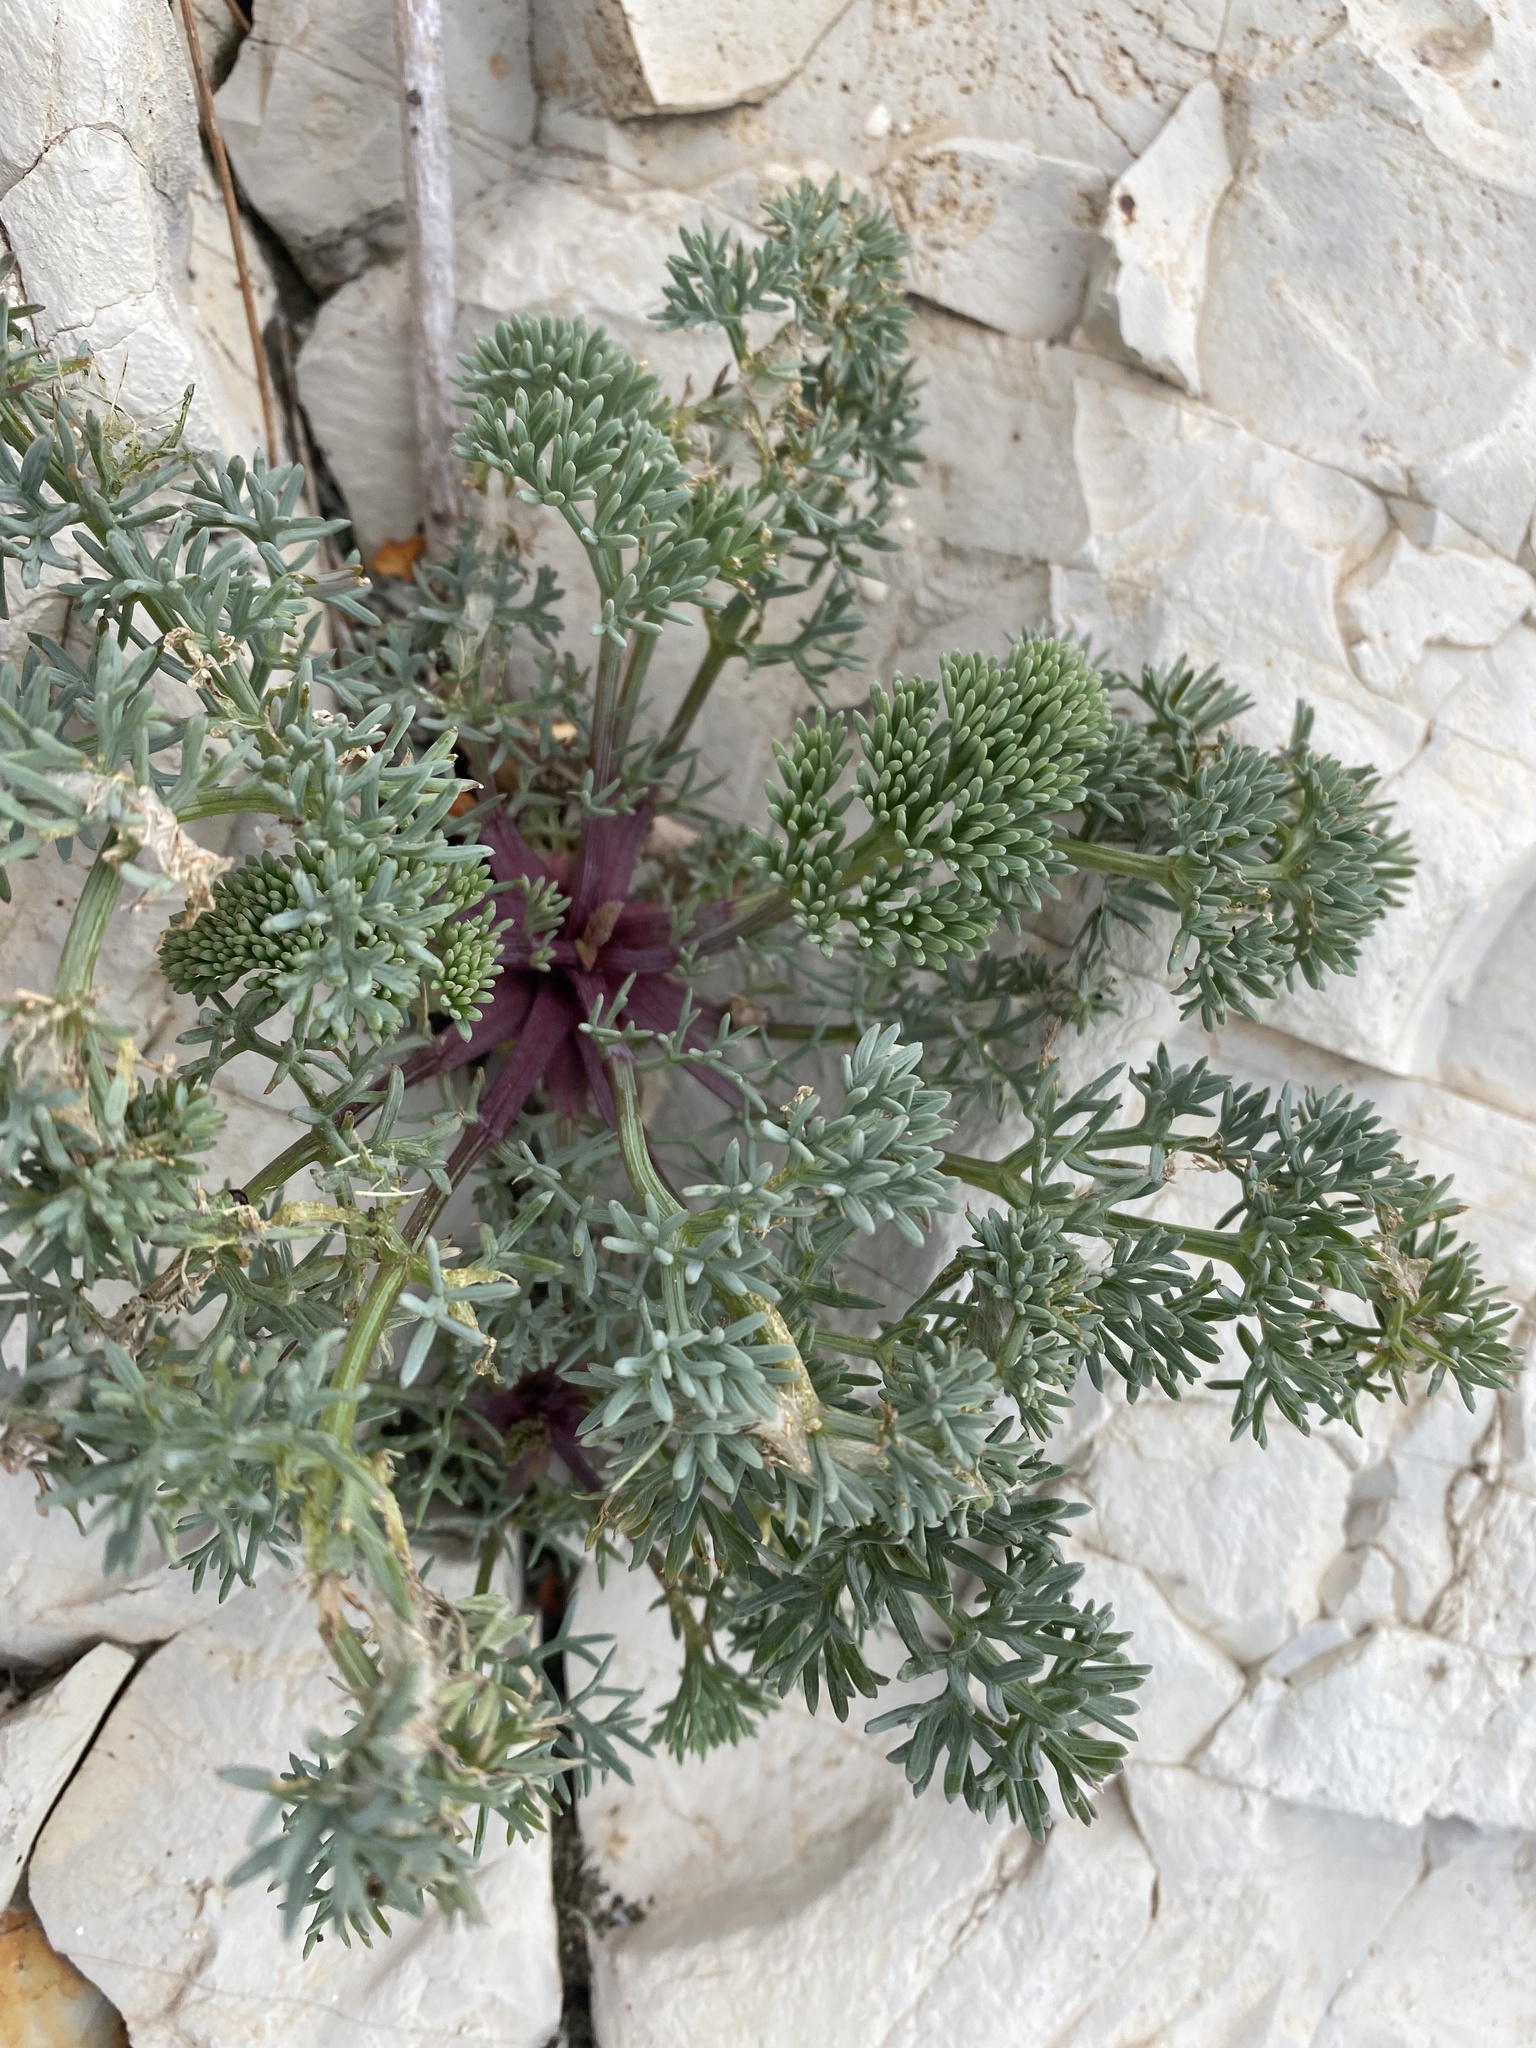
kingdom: Plantae
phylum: Tracheophyta
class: Magnoliopsida
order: Apiales
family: Apiaceae
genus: Seseli
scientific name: Seseli ponticum
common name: Pontic seseli
